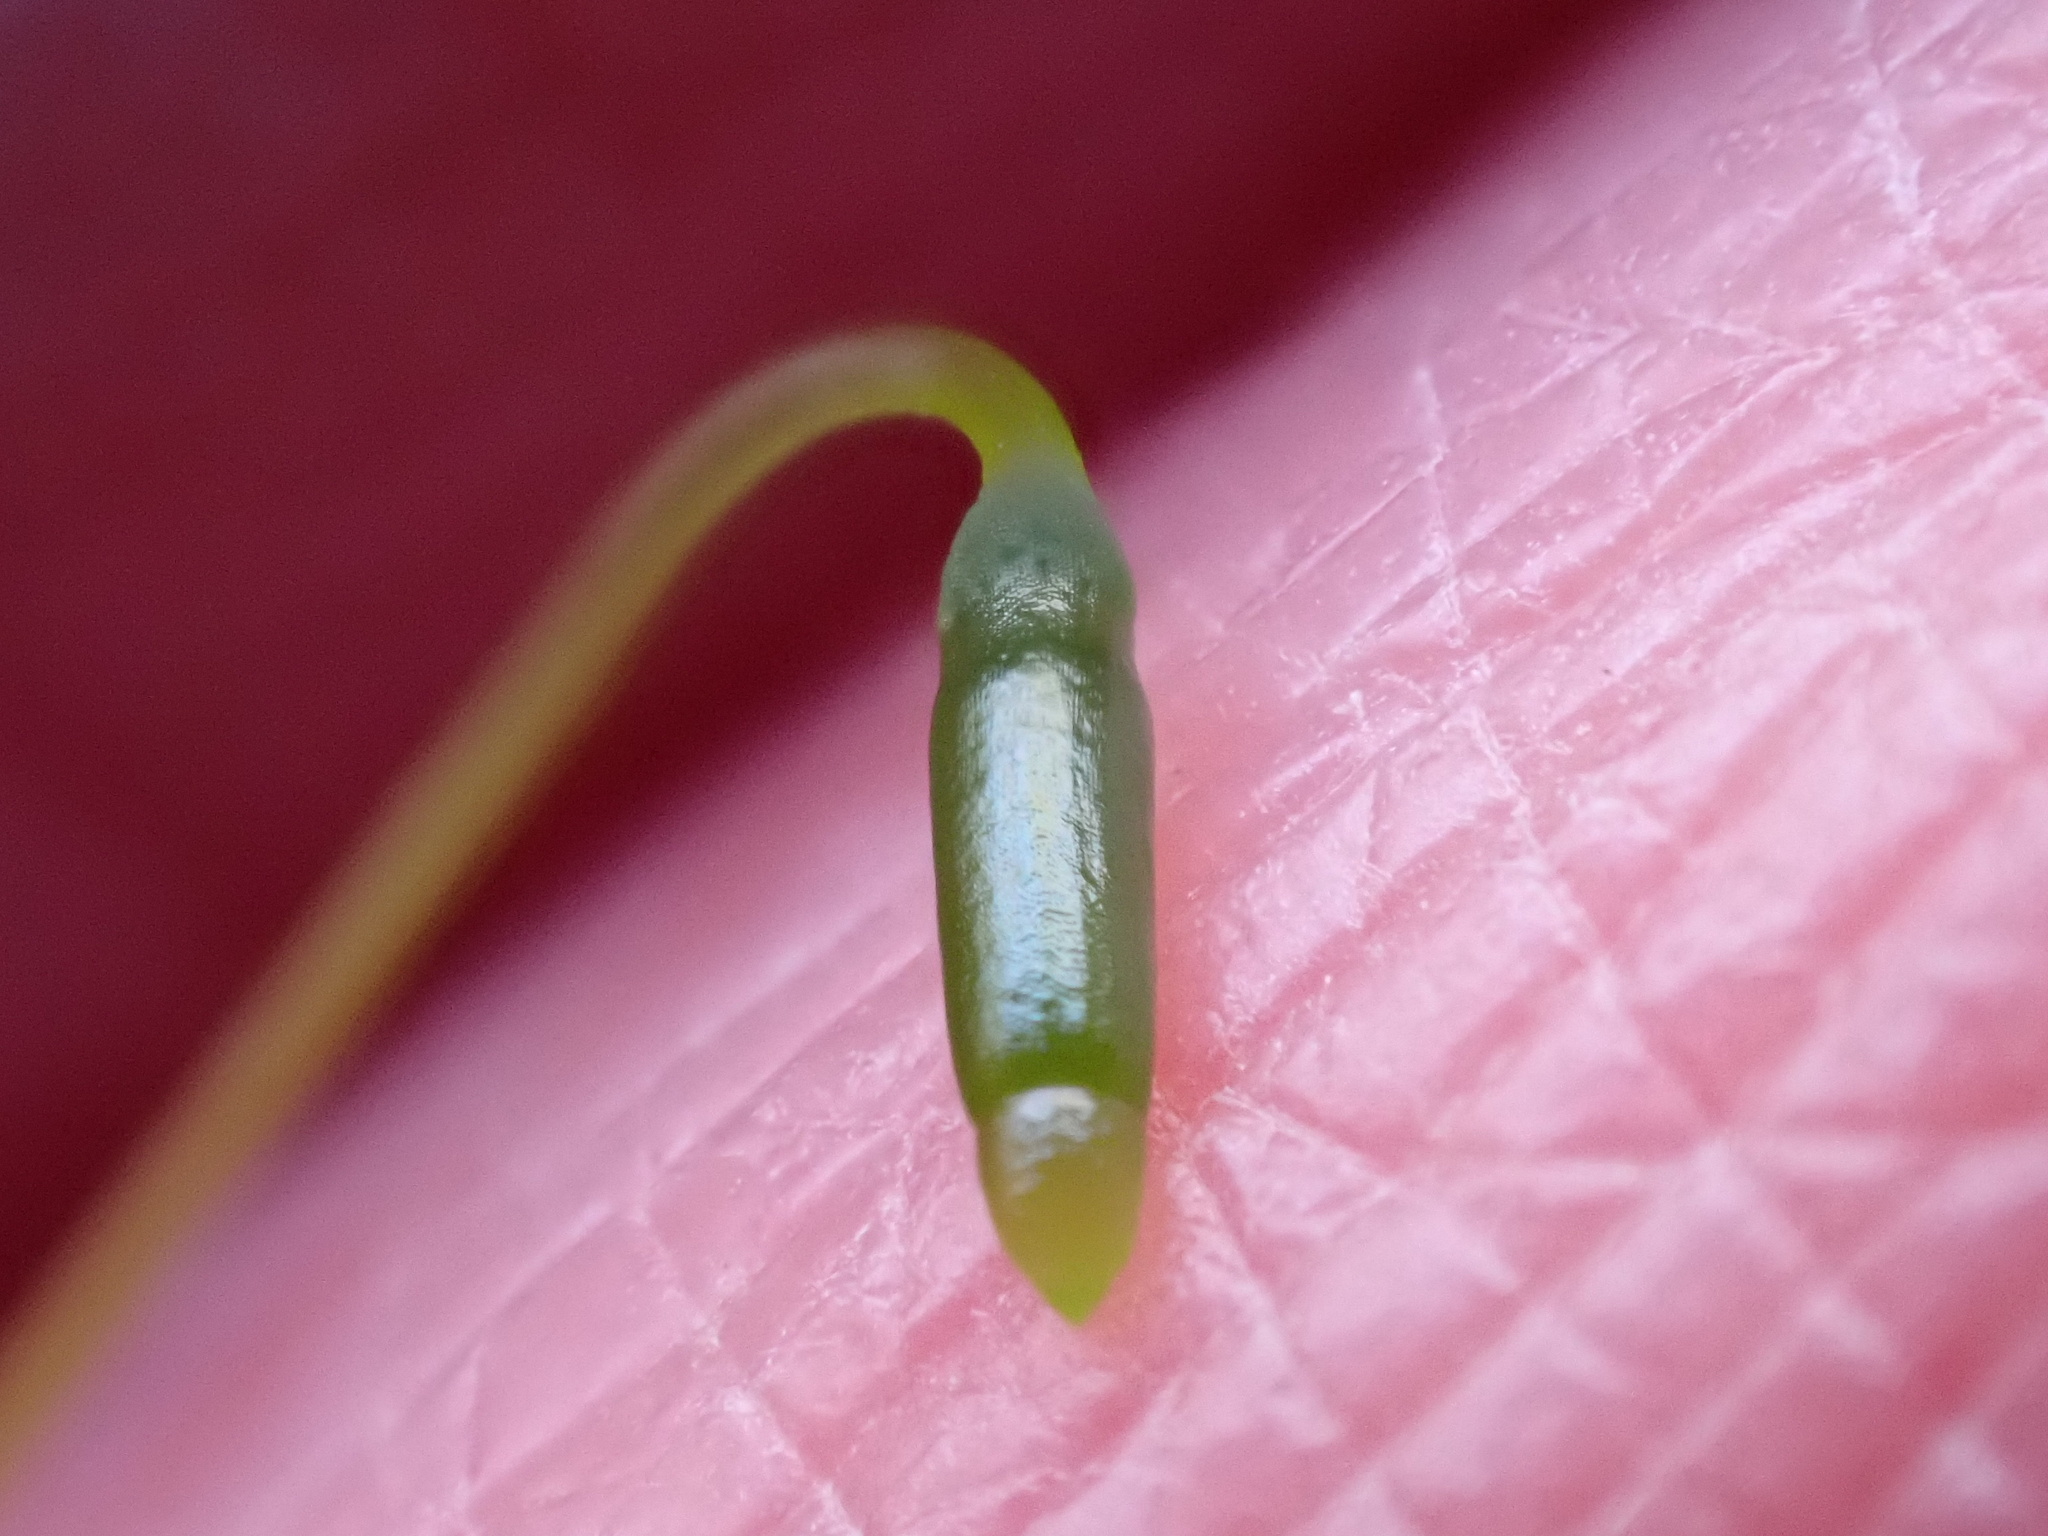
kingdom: Plantae
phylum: Bryophyta
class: Bryopsida
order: Bryales
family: Mniaceae
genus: Mnium
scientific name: Mnium hornum
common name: Swan's-neck leafy moss
